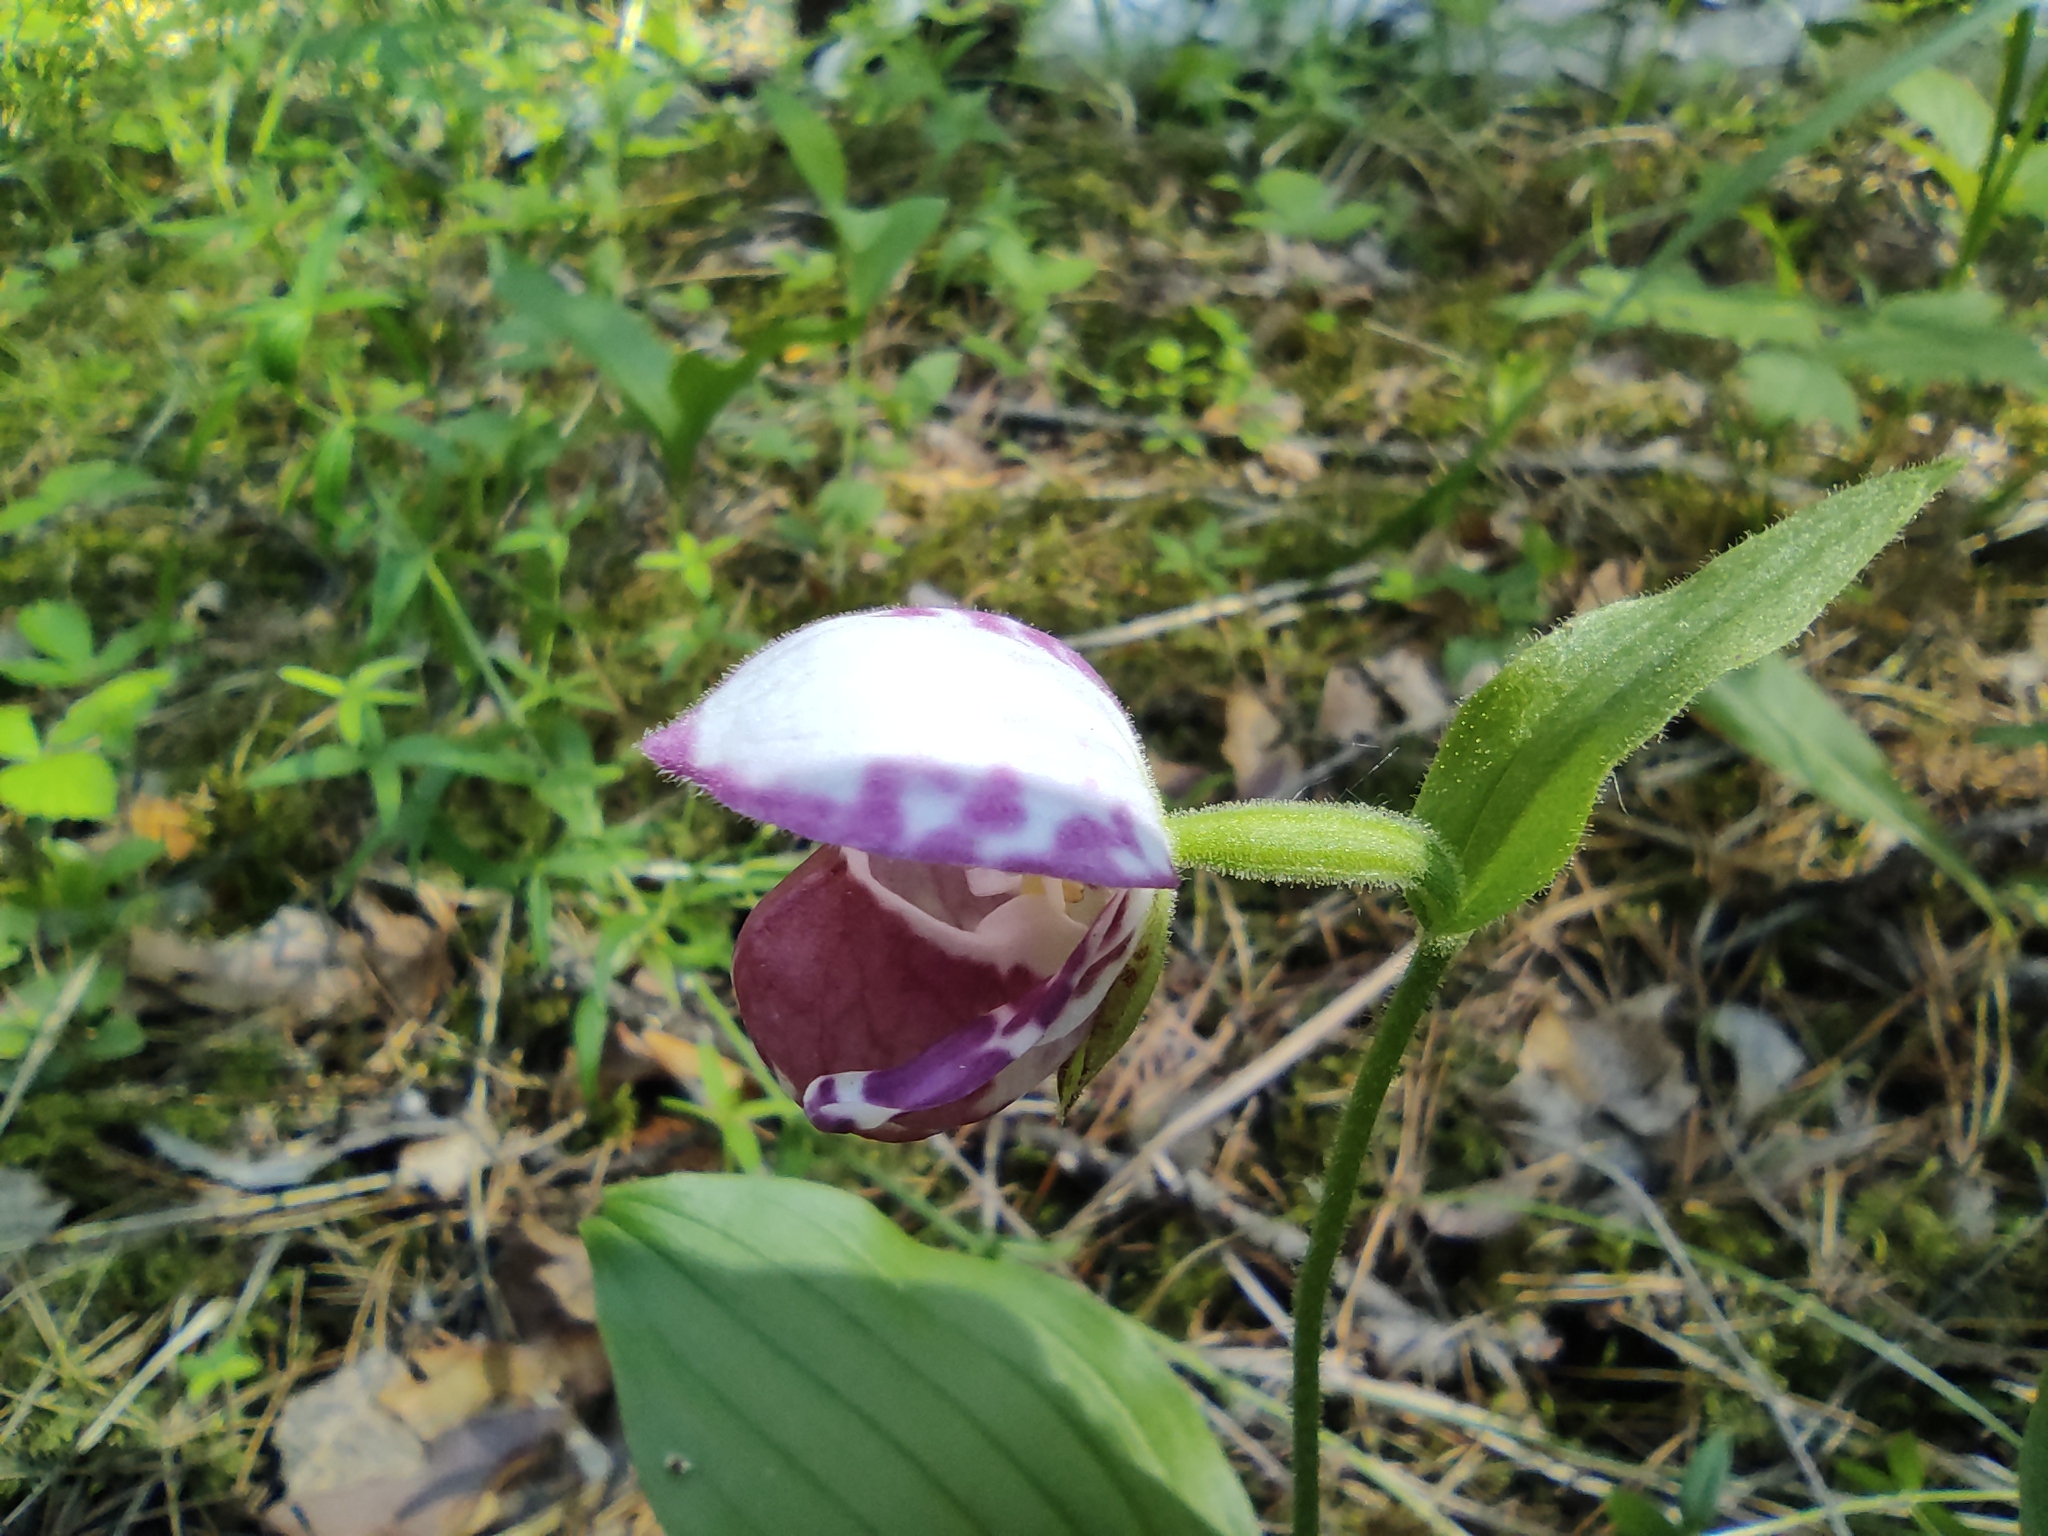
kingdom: Plantae
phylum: Tracheophyta
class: Liliopsida
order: Asparagales
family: Orchidaceae
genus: Cypripedium
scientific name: Cypripedium guttatum
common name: Pink lady slipper
